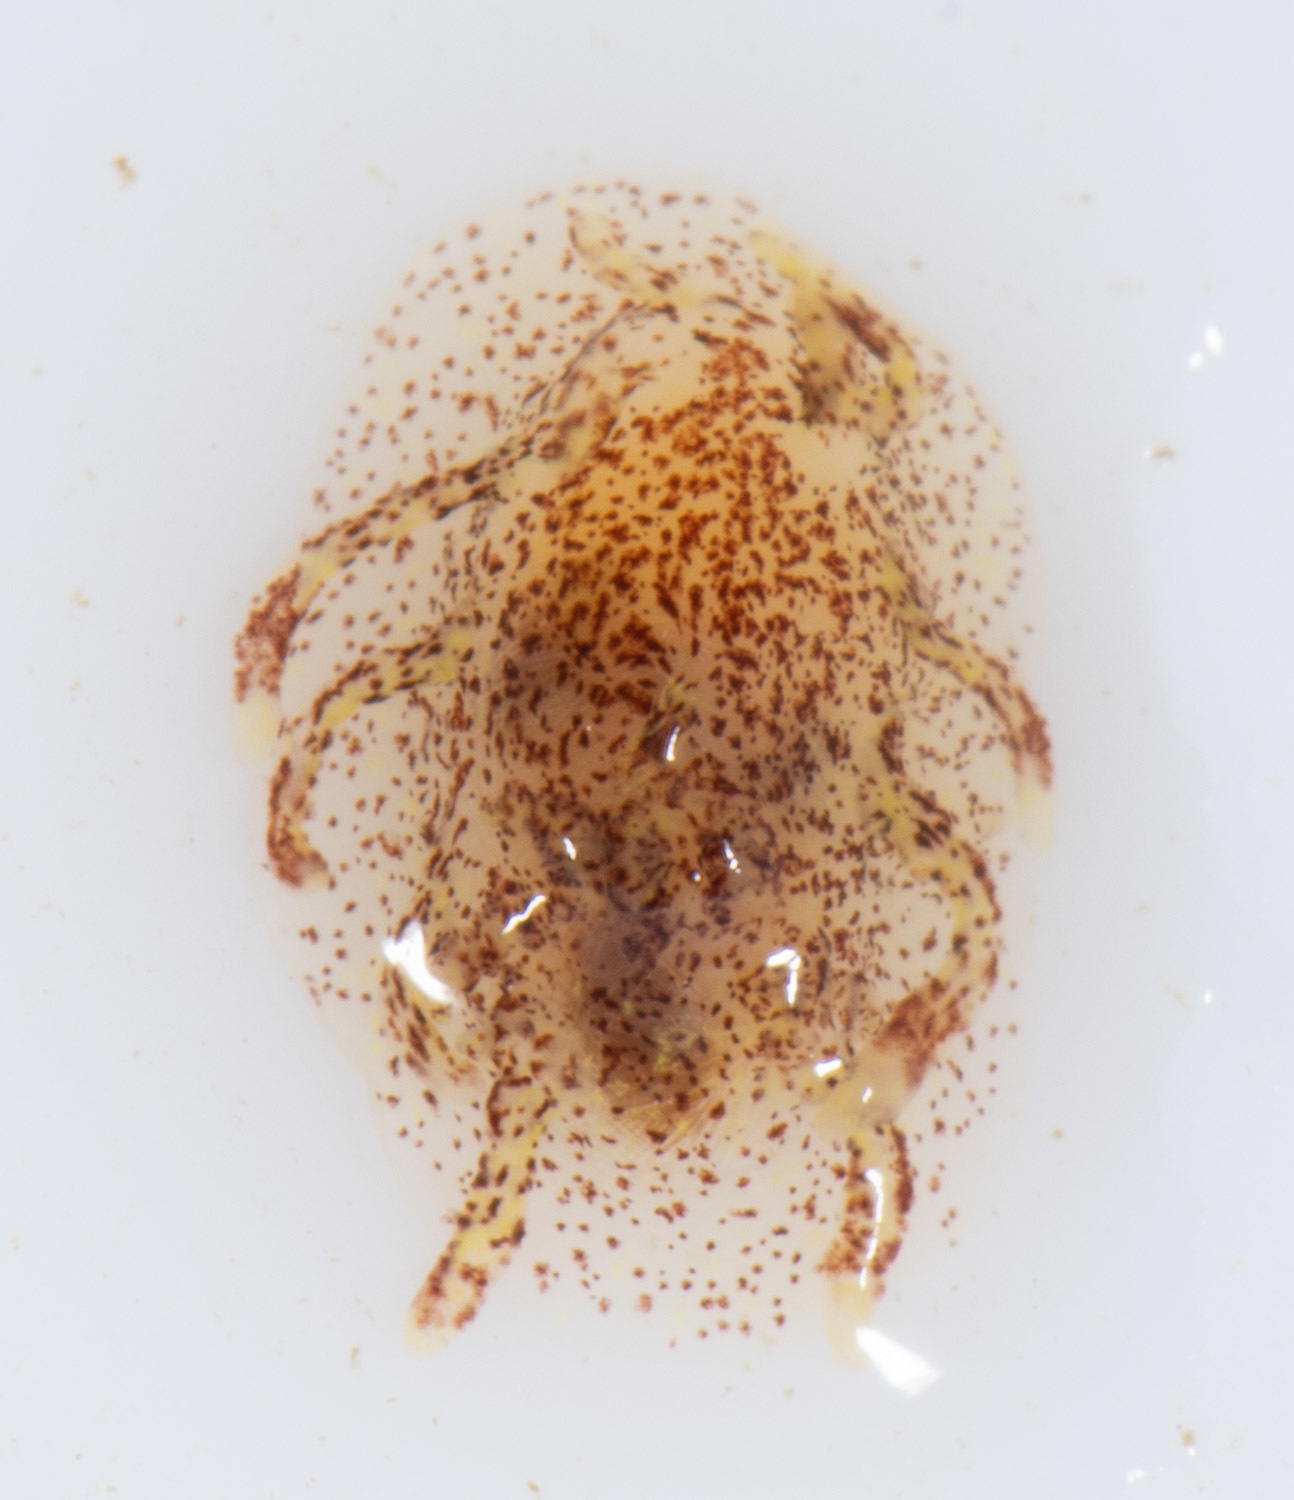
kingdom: Animalia
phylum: Mollusca
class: Gastropoda
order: Nudibranchia
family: Goniodorididae
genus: Okenia
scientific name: Okenia
